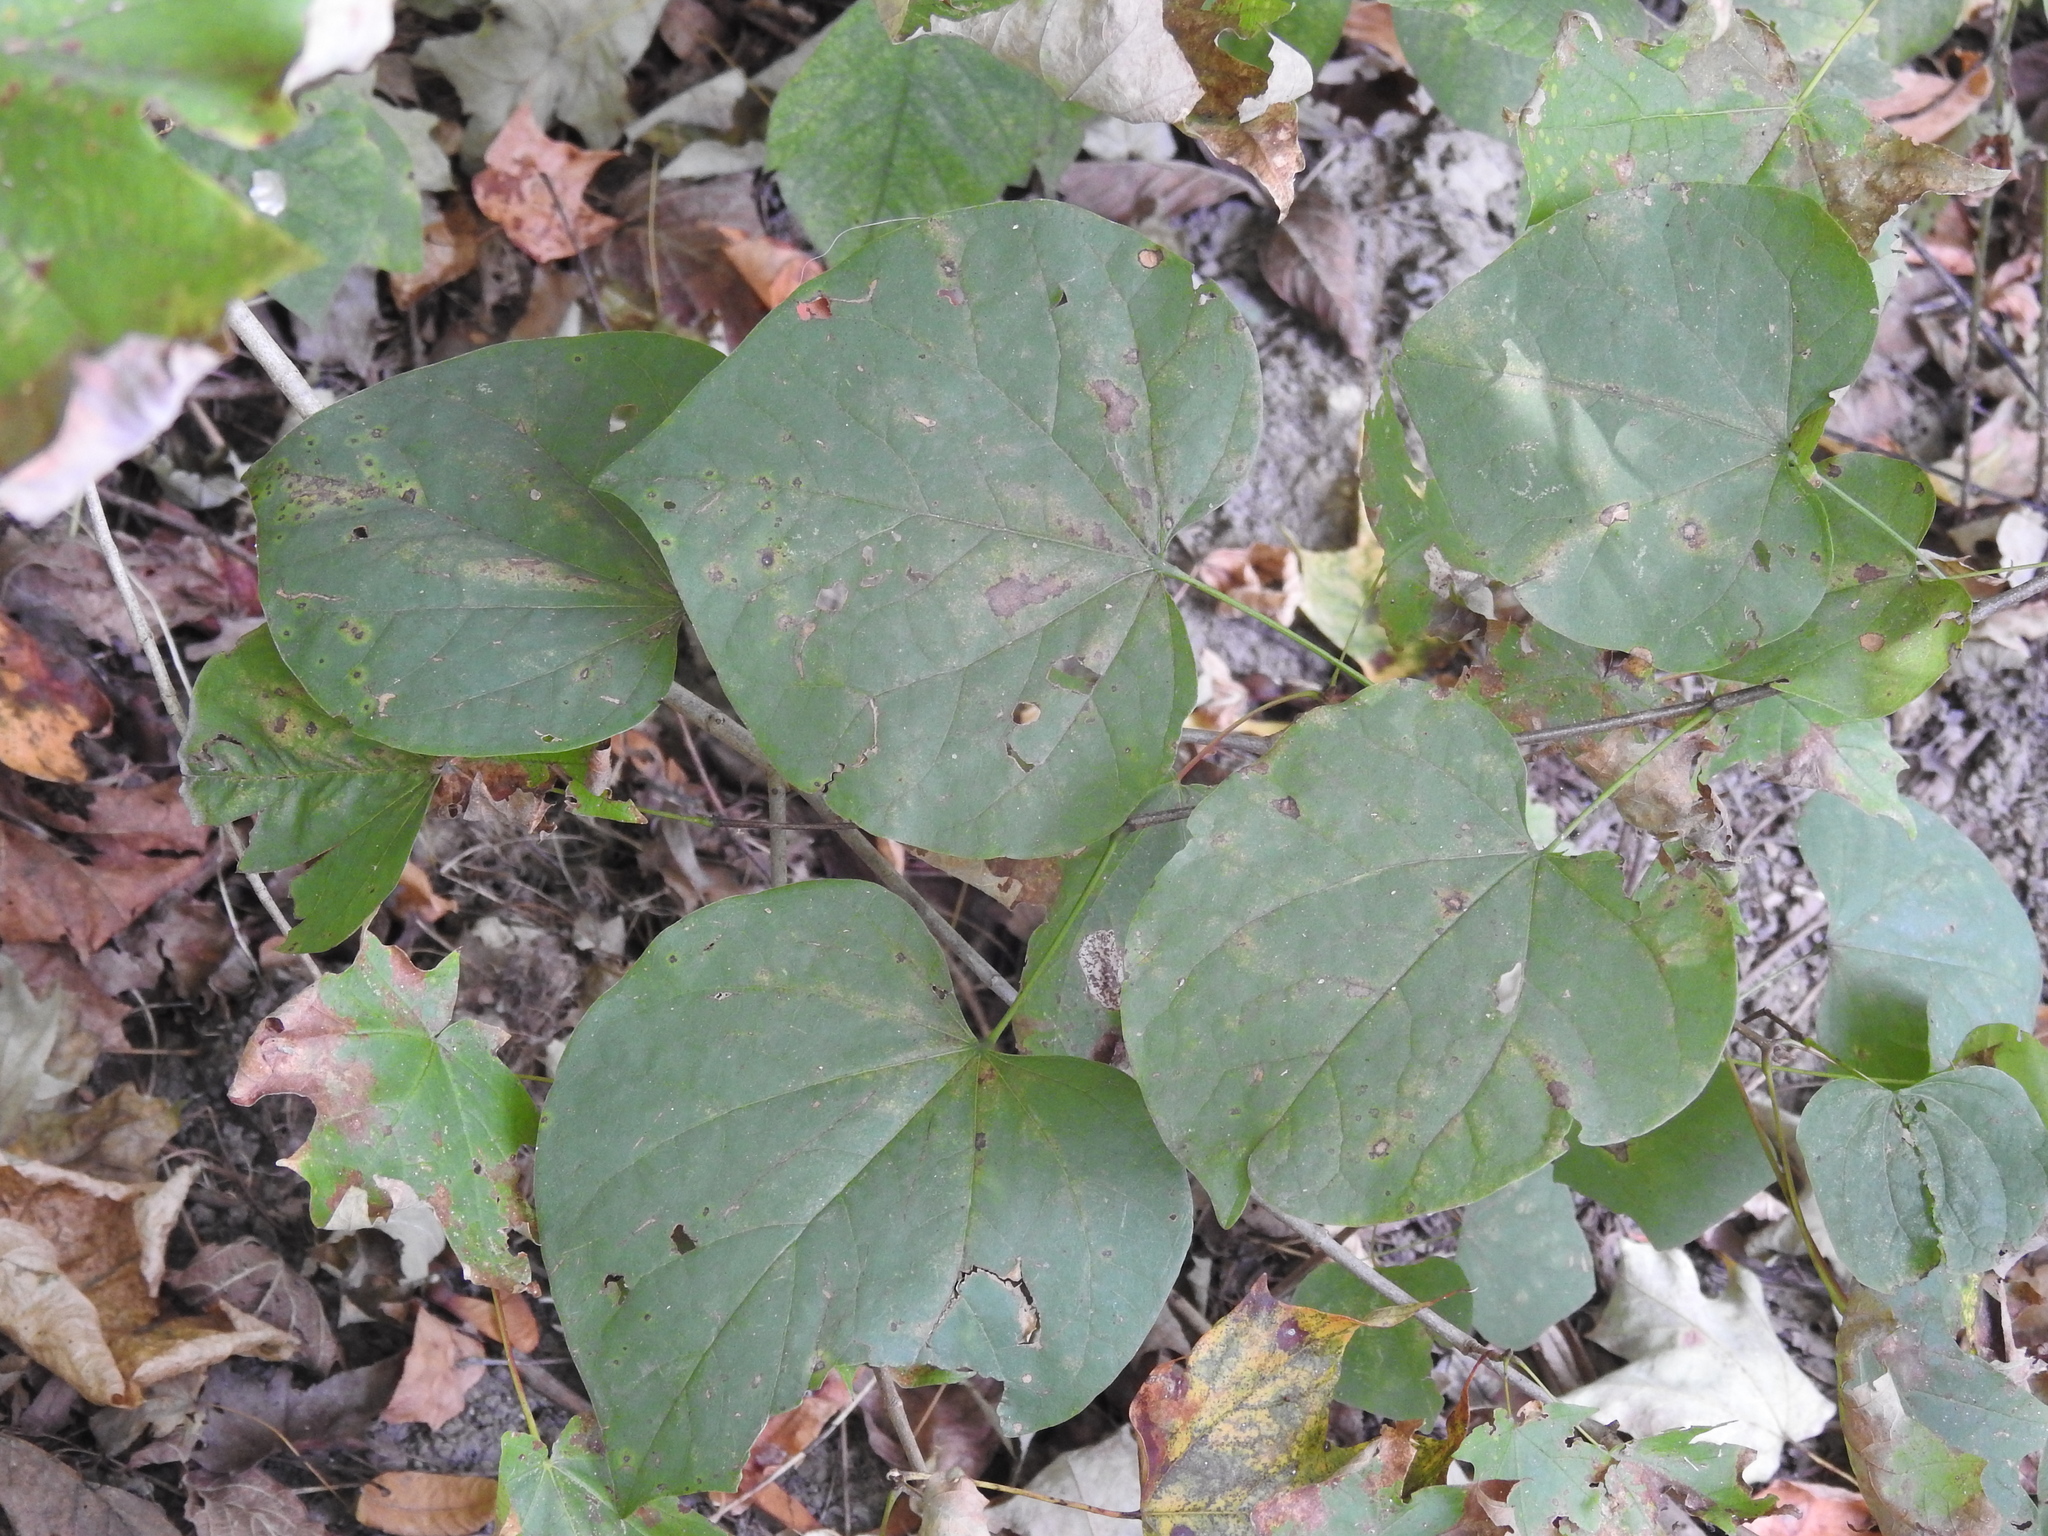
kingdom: Plantae
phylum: Tracheophyta
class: Magnoliopsida
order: Fabales
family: Fabaceae
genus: Cercis
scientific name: Cercis canadensis
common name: Eastern redbud
